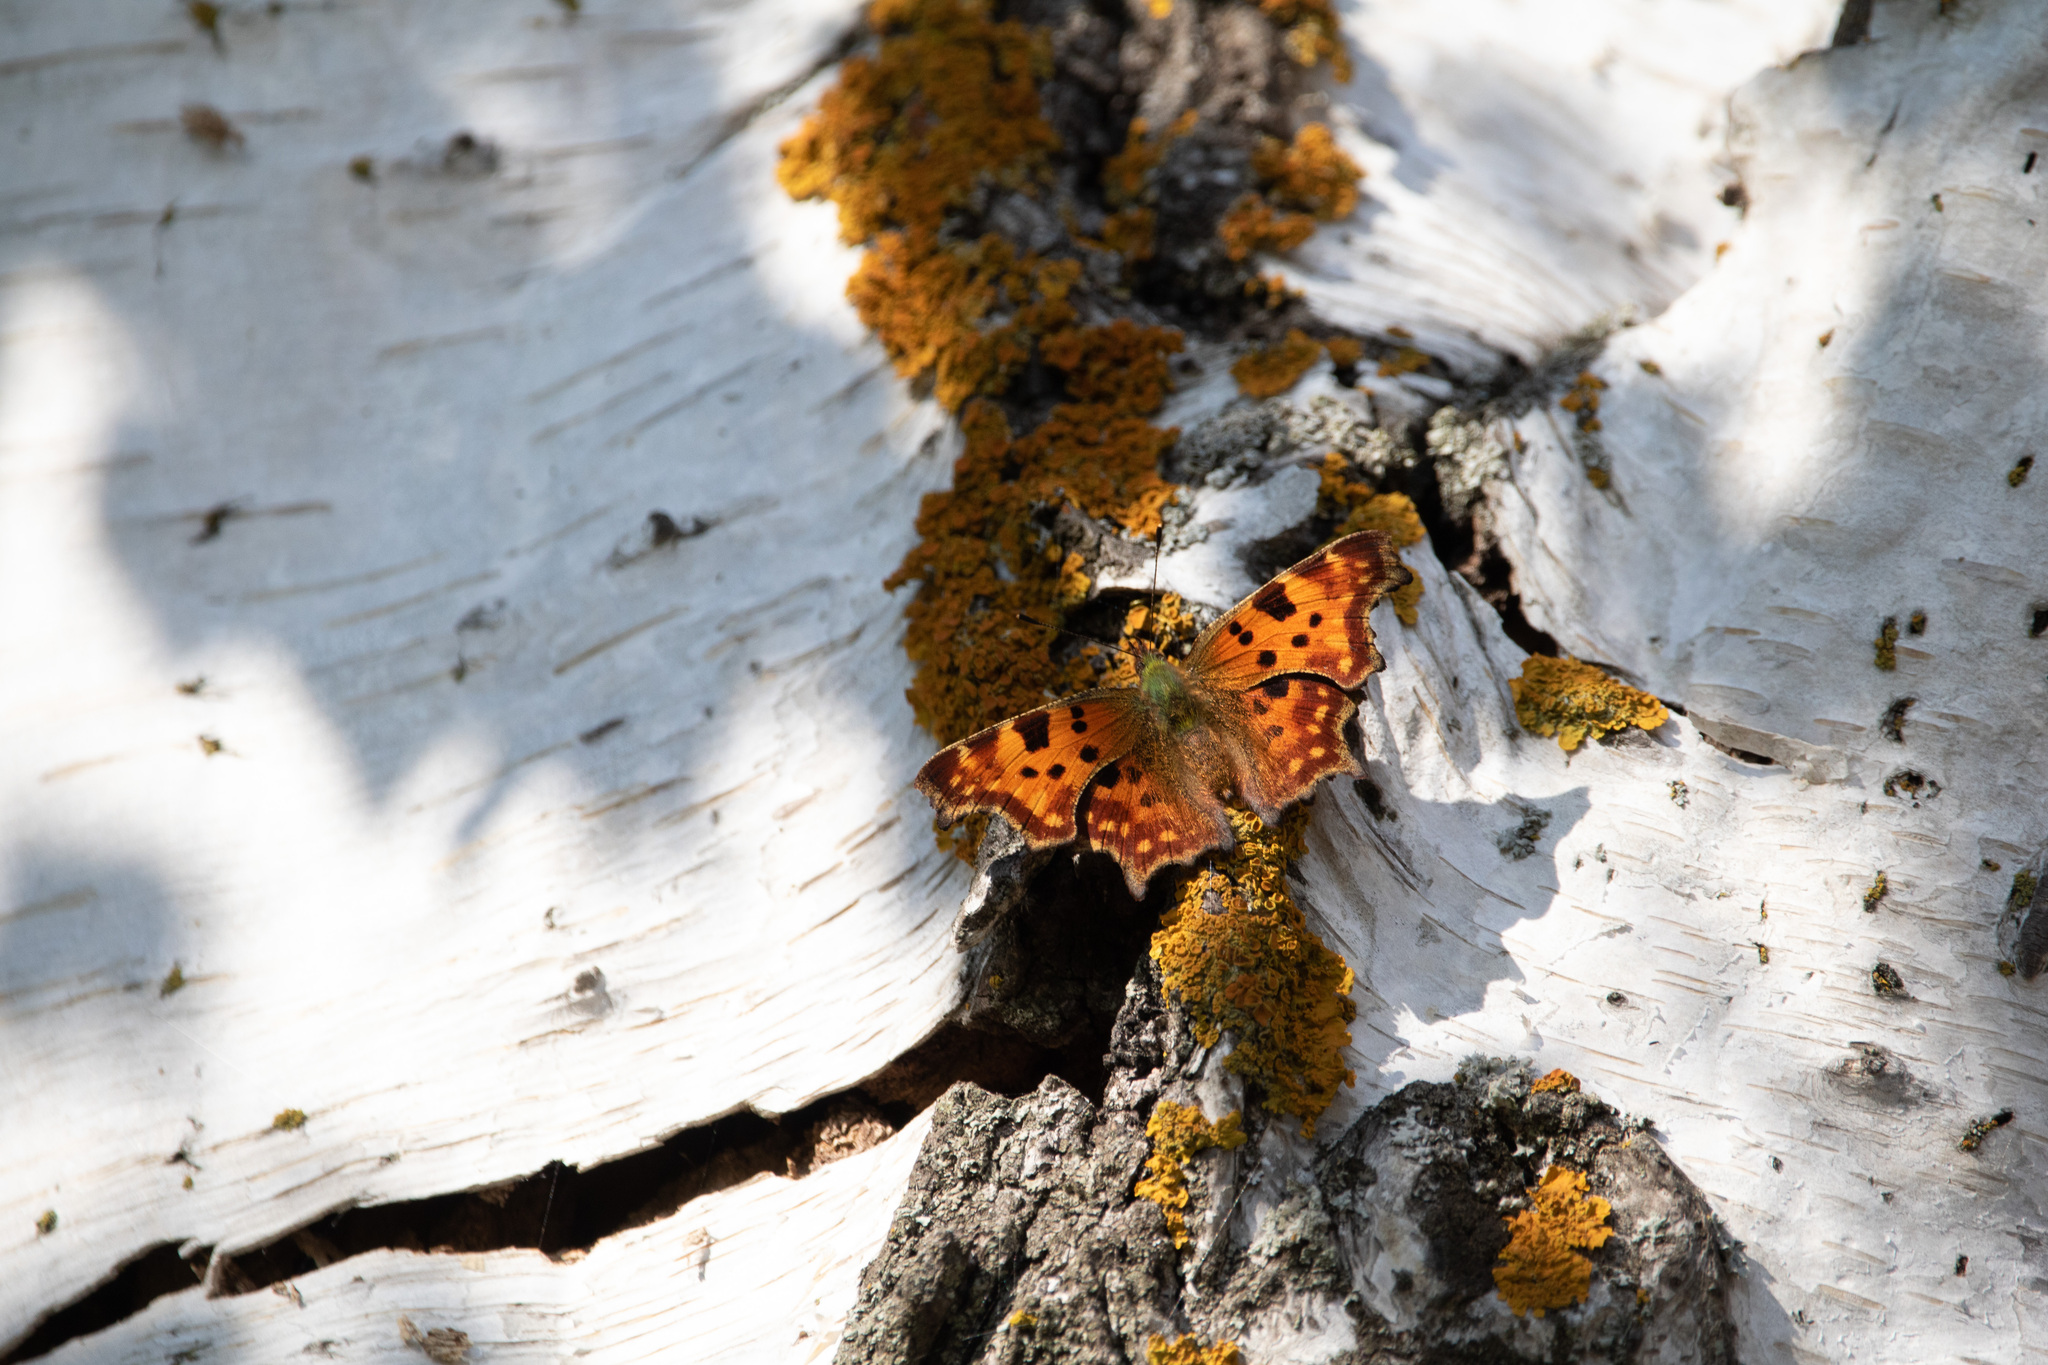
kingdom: Animalia
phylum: Arthropoda
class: Insecta
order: Lepidoptera
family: Nymphalidae
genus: Polygonia
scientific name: Polygonia c-album
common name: Comma
